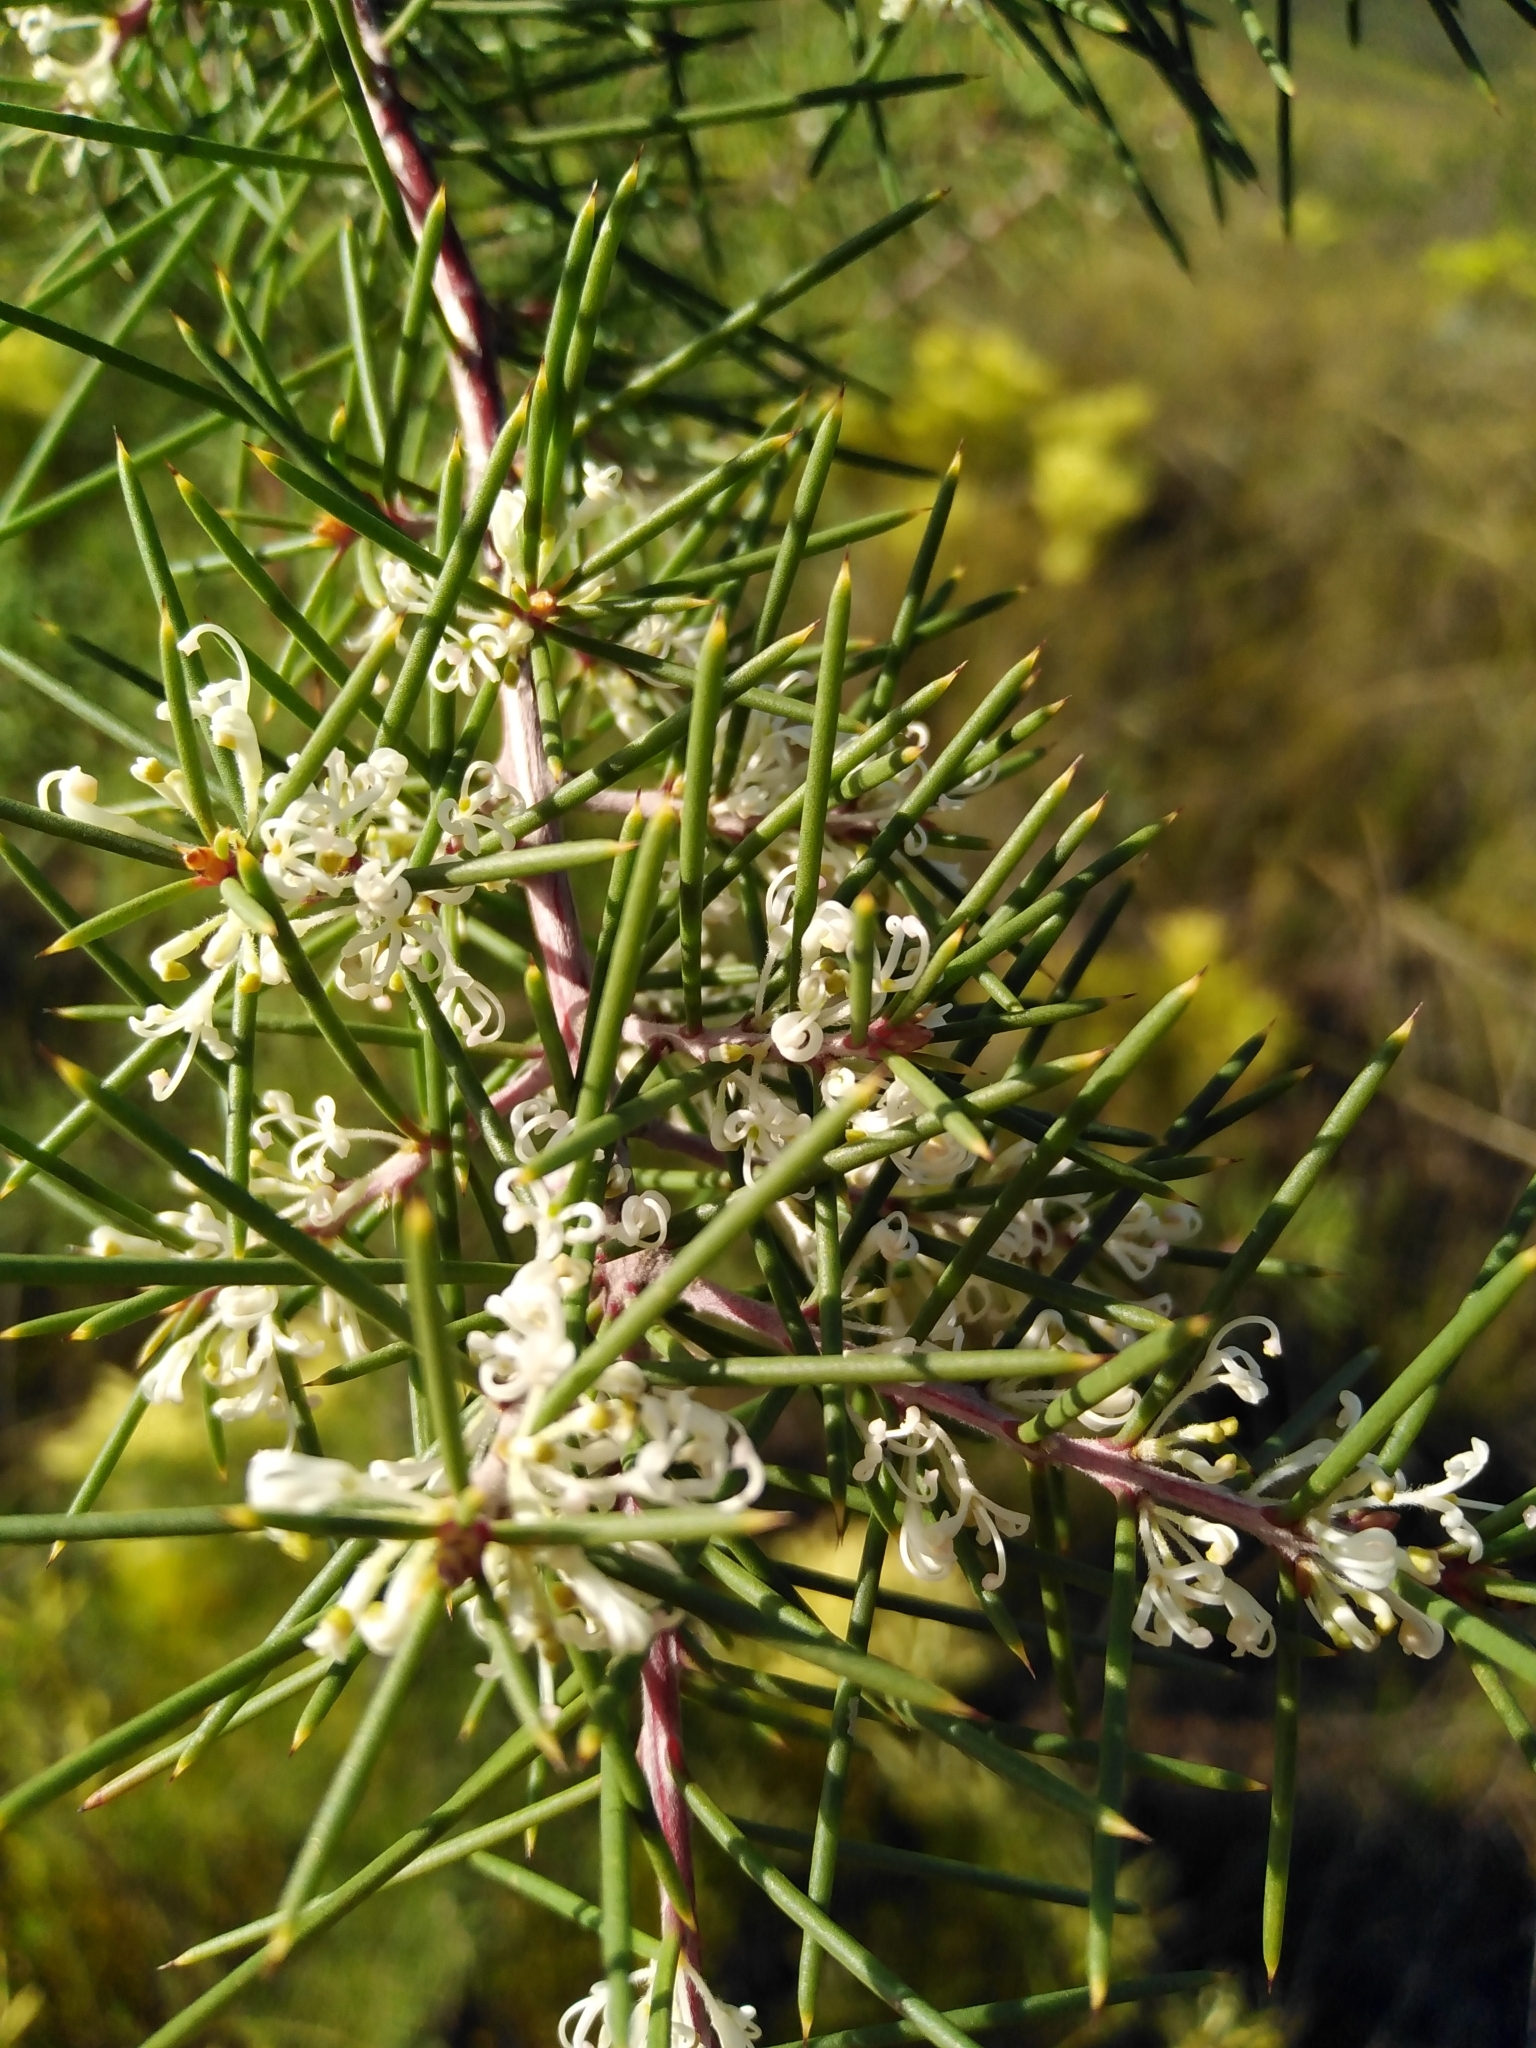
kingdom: Plantae
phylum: Tracheophyta
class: Magnoliopsida
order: Proteales
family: Proteaceae
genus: Hakea
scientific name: Hakea sericea
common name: Needle bush
